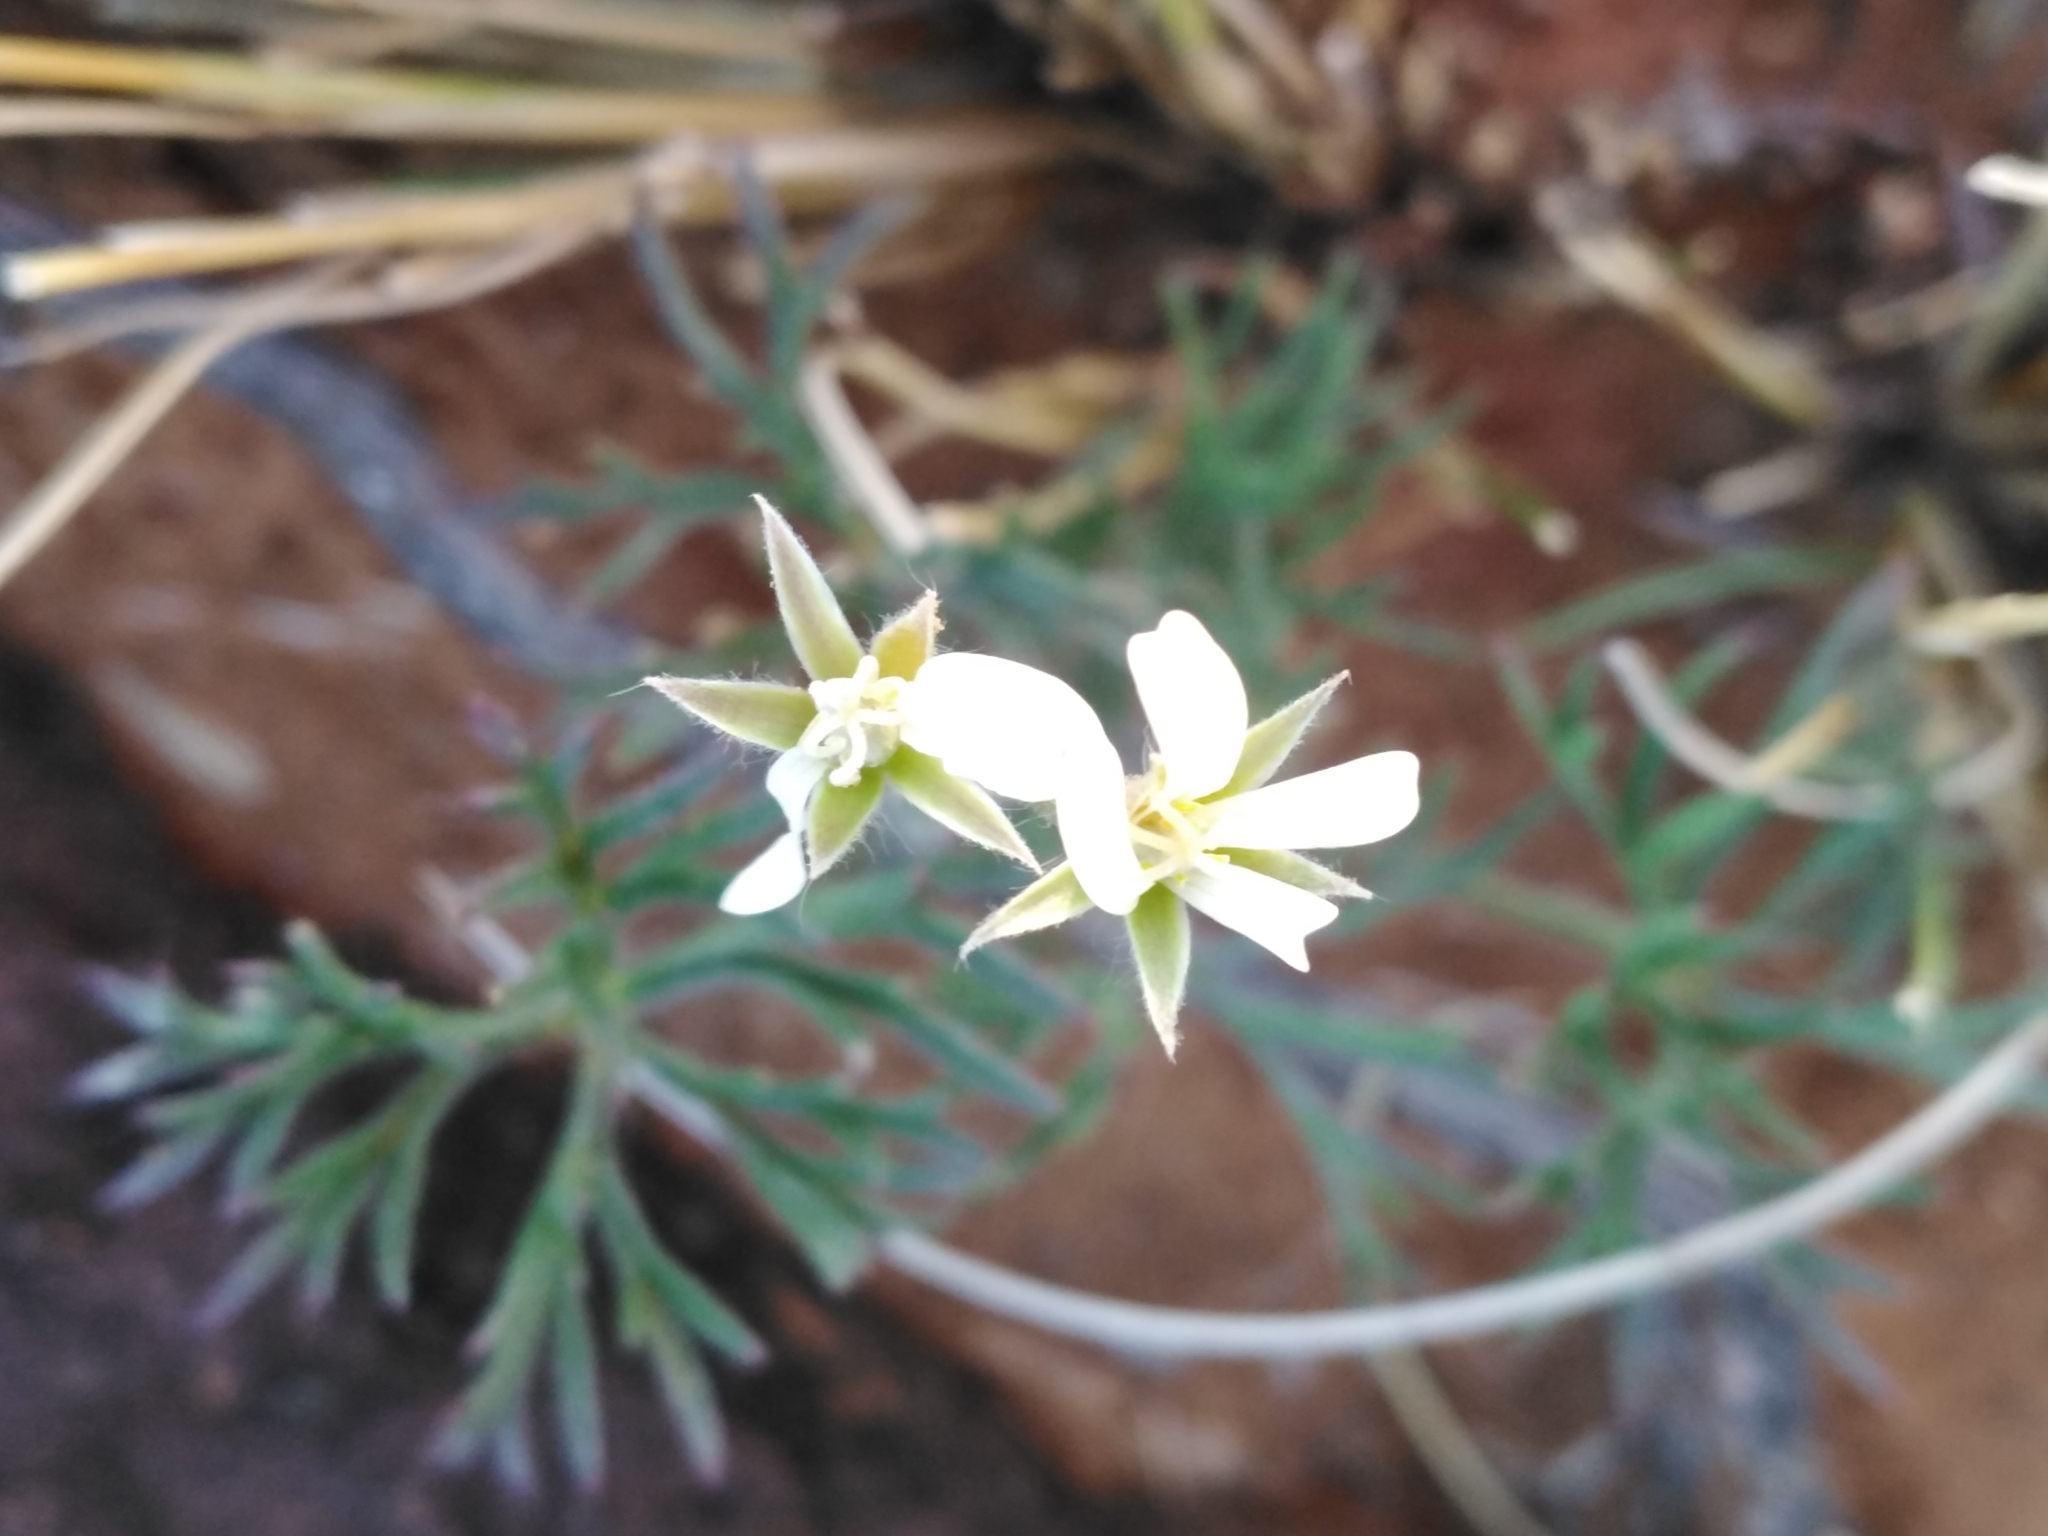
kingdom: Plantae
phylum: Tracheophyta
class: Magnoliopsida
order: Geraniales
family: Geraniaceae
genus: Pelargonium
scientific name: Pelargonium aridum
